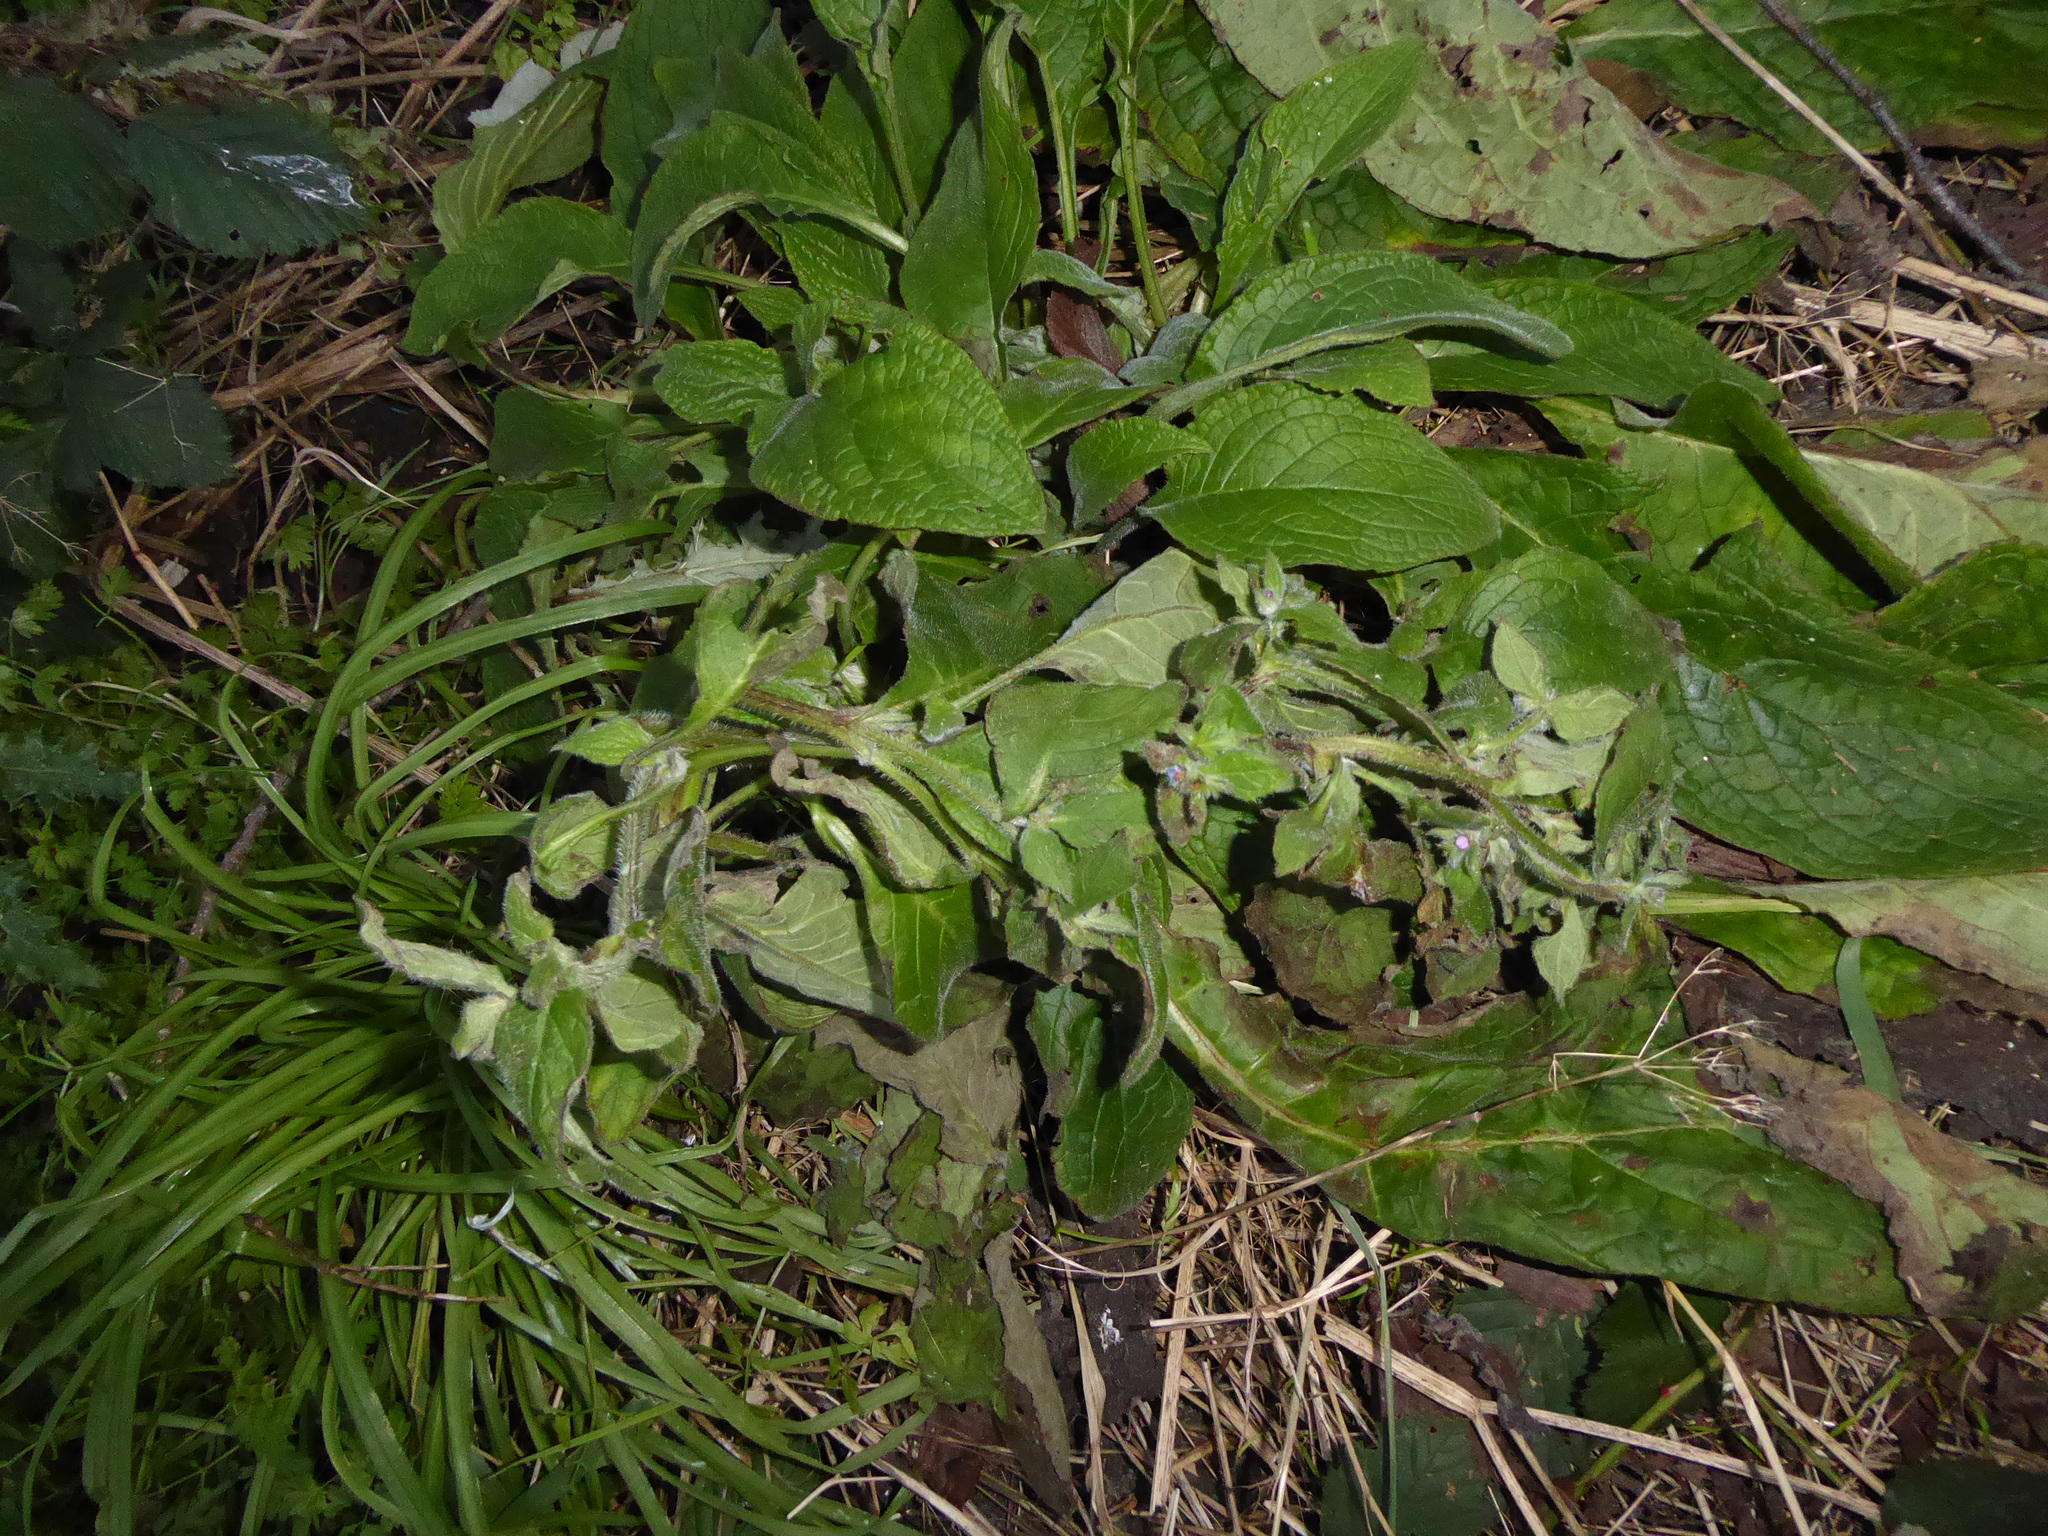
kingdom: Plantae
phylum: Tracheophyta
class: Magnoliopsida
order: Boraginales
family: Boraginaceae
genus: Pentaglottis
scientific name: Pentaglottis sempervirens
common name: Green alkanet
